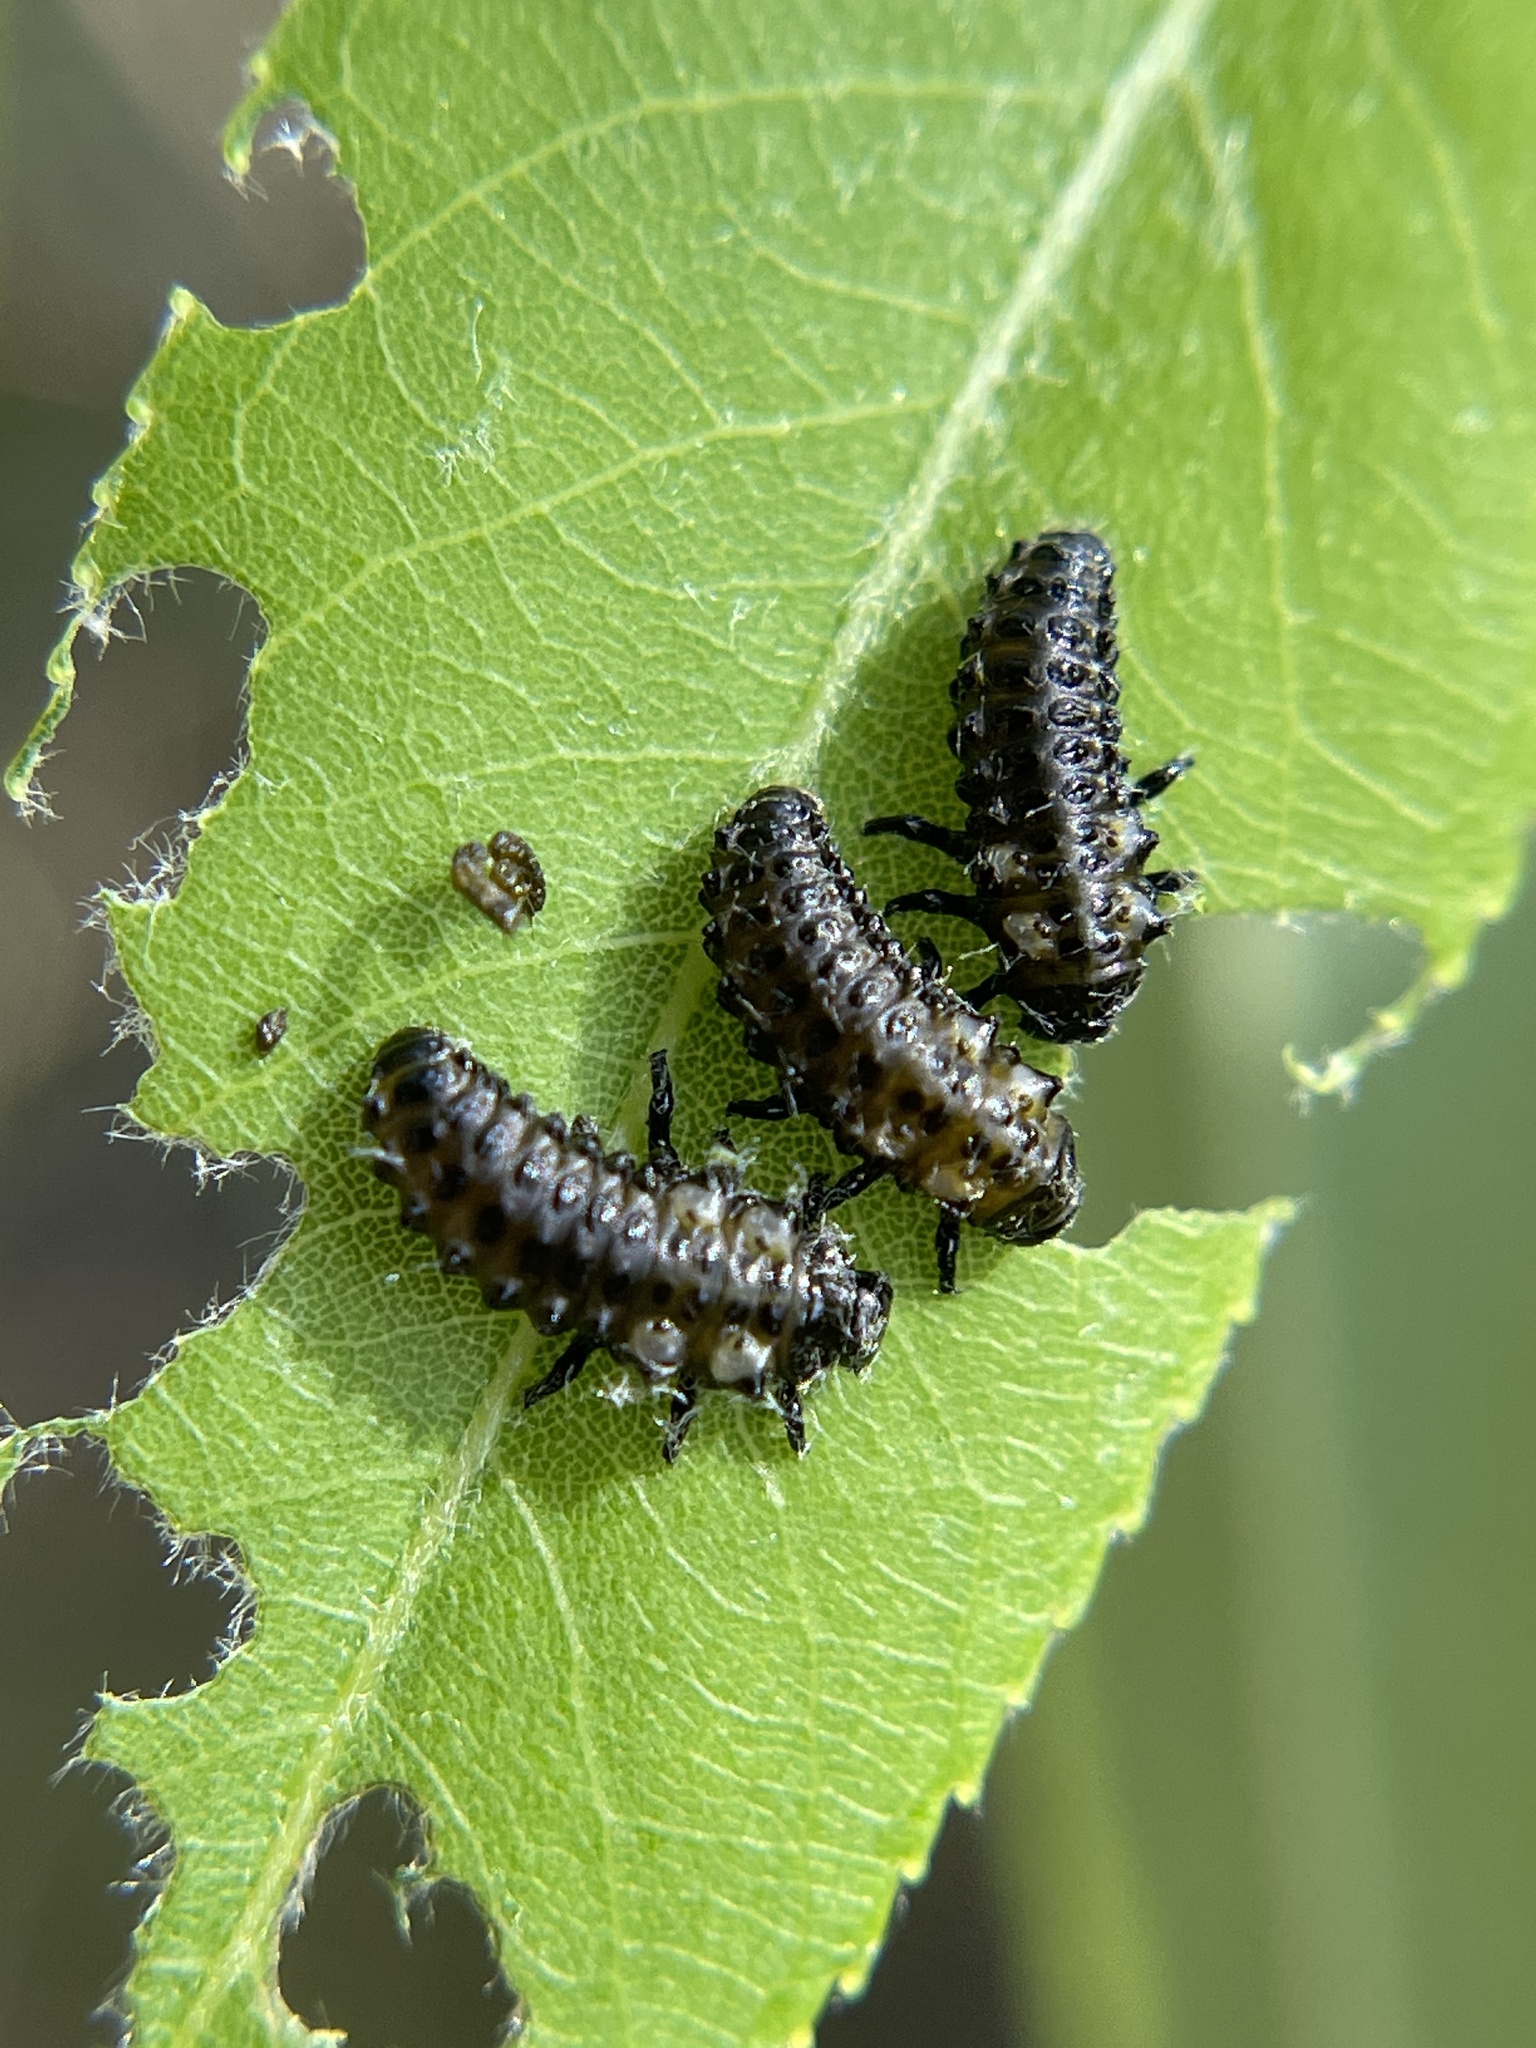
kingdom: Animalia
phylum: Arthropoda
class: Insecta
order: Coleoptera
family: Chrysomelidae
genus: Aethiopocassis
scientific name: Aethiopocassis scripta
